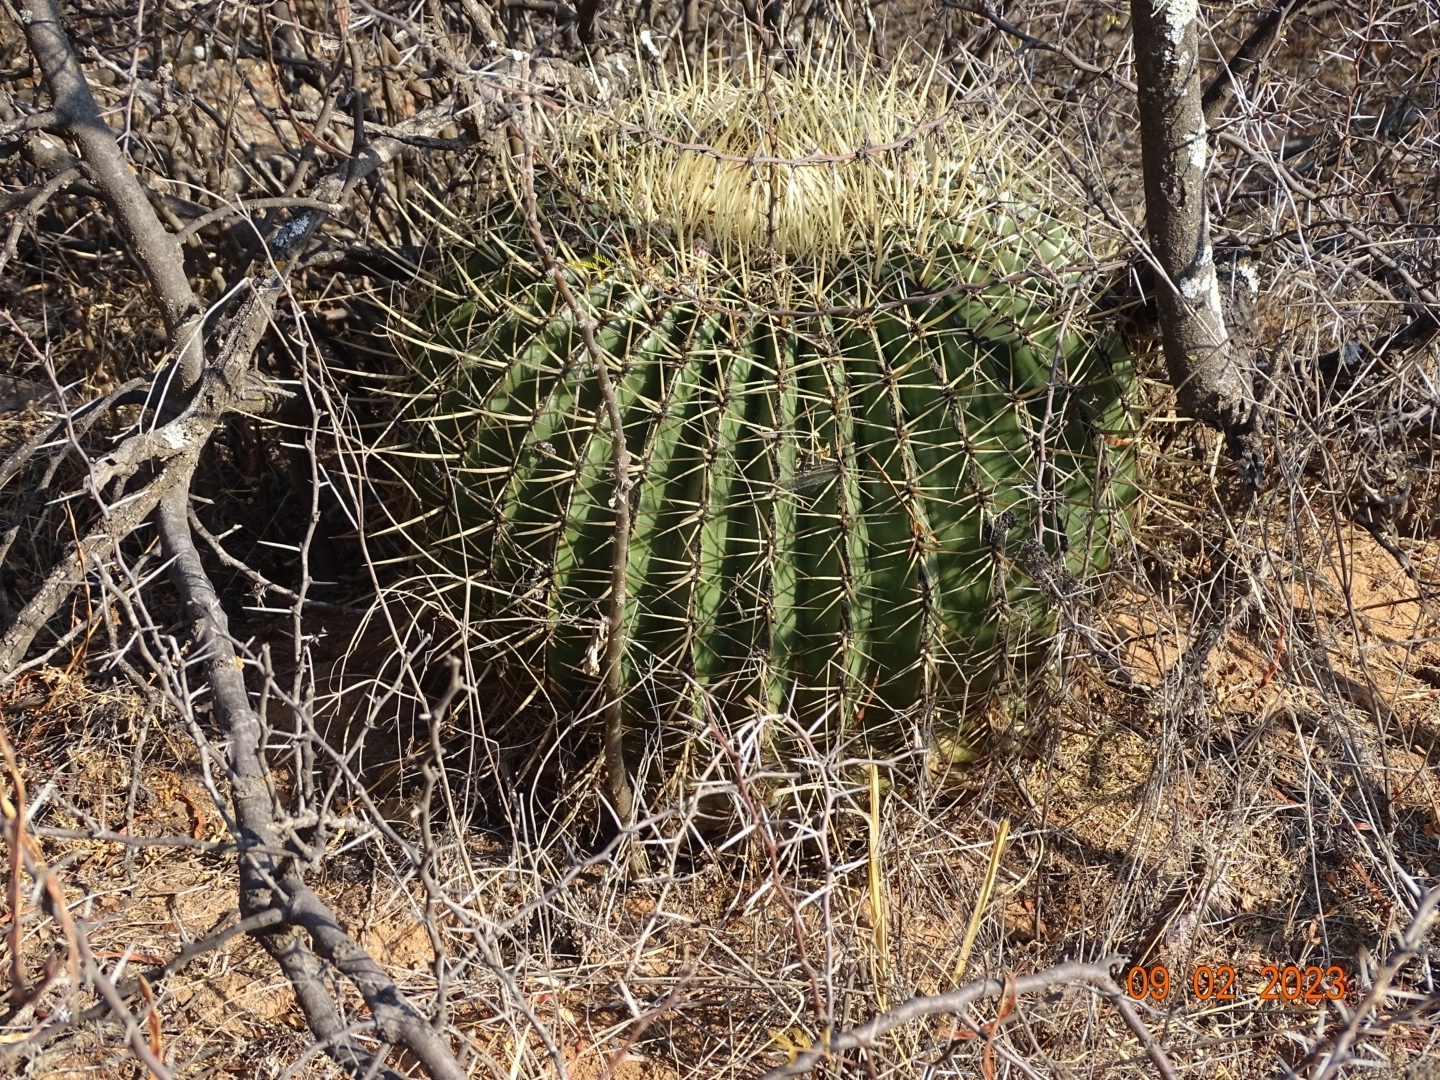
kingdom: Plantae
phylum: Tracheophyta
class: Magnoliopsida
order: Caryophyllales
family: Cactaceae
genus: Bisnaga
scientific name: Bisnaga histrix
